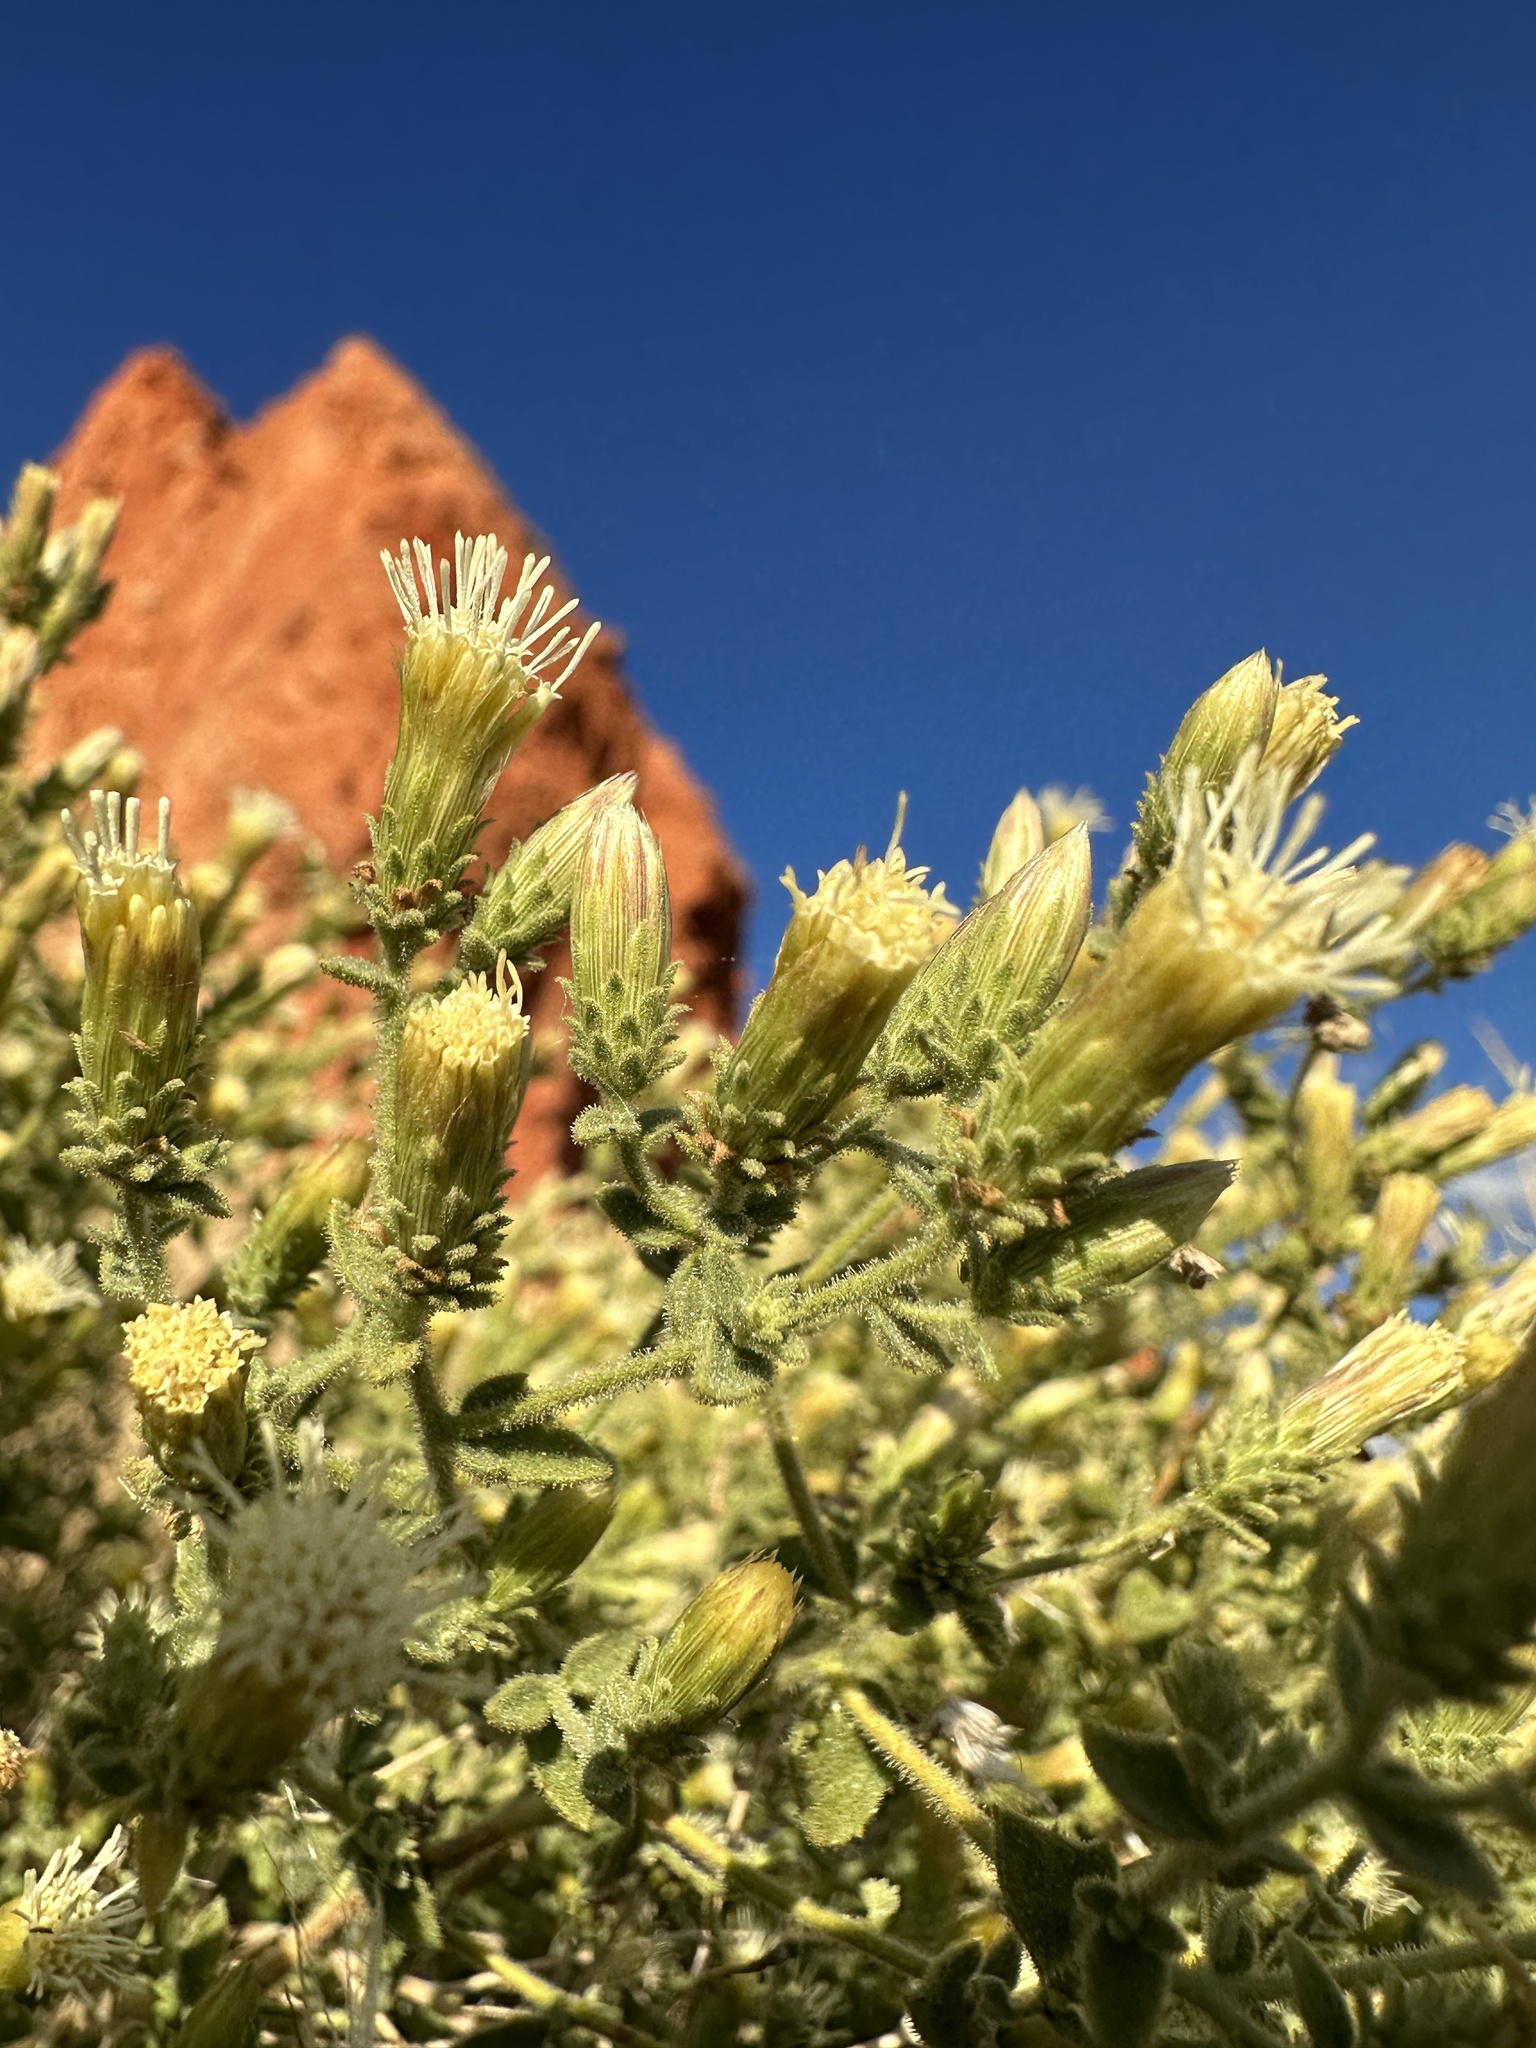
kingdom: Plantae
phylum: Tracheophyta
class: Magnoliopsida
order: Asterales
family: Asteraceae
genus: Brickellia
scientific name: Brickellia microphylla
